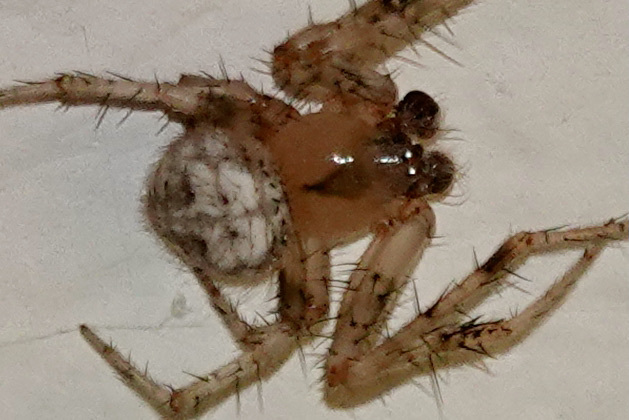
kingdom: Animalia
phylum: Arthropoda
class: Arachnida
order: Araneae
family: Araneidae
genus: Araneus
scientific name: Araneus pegnia
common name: Orb weavers
